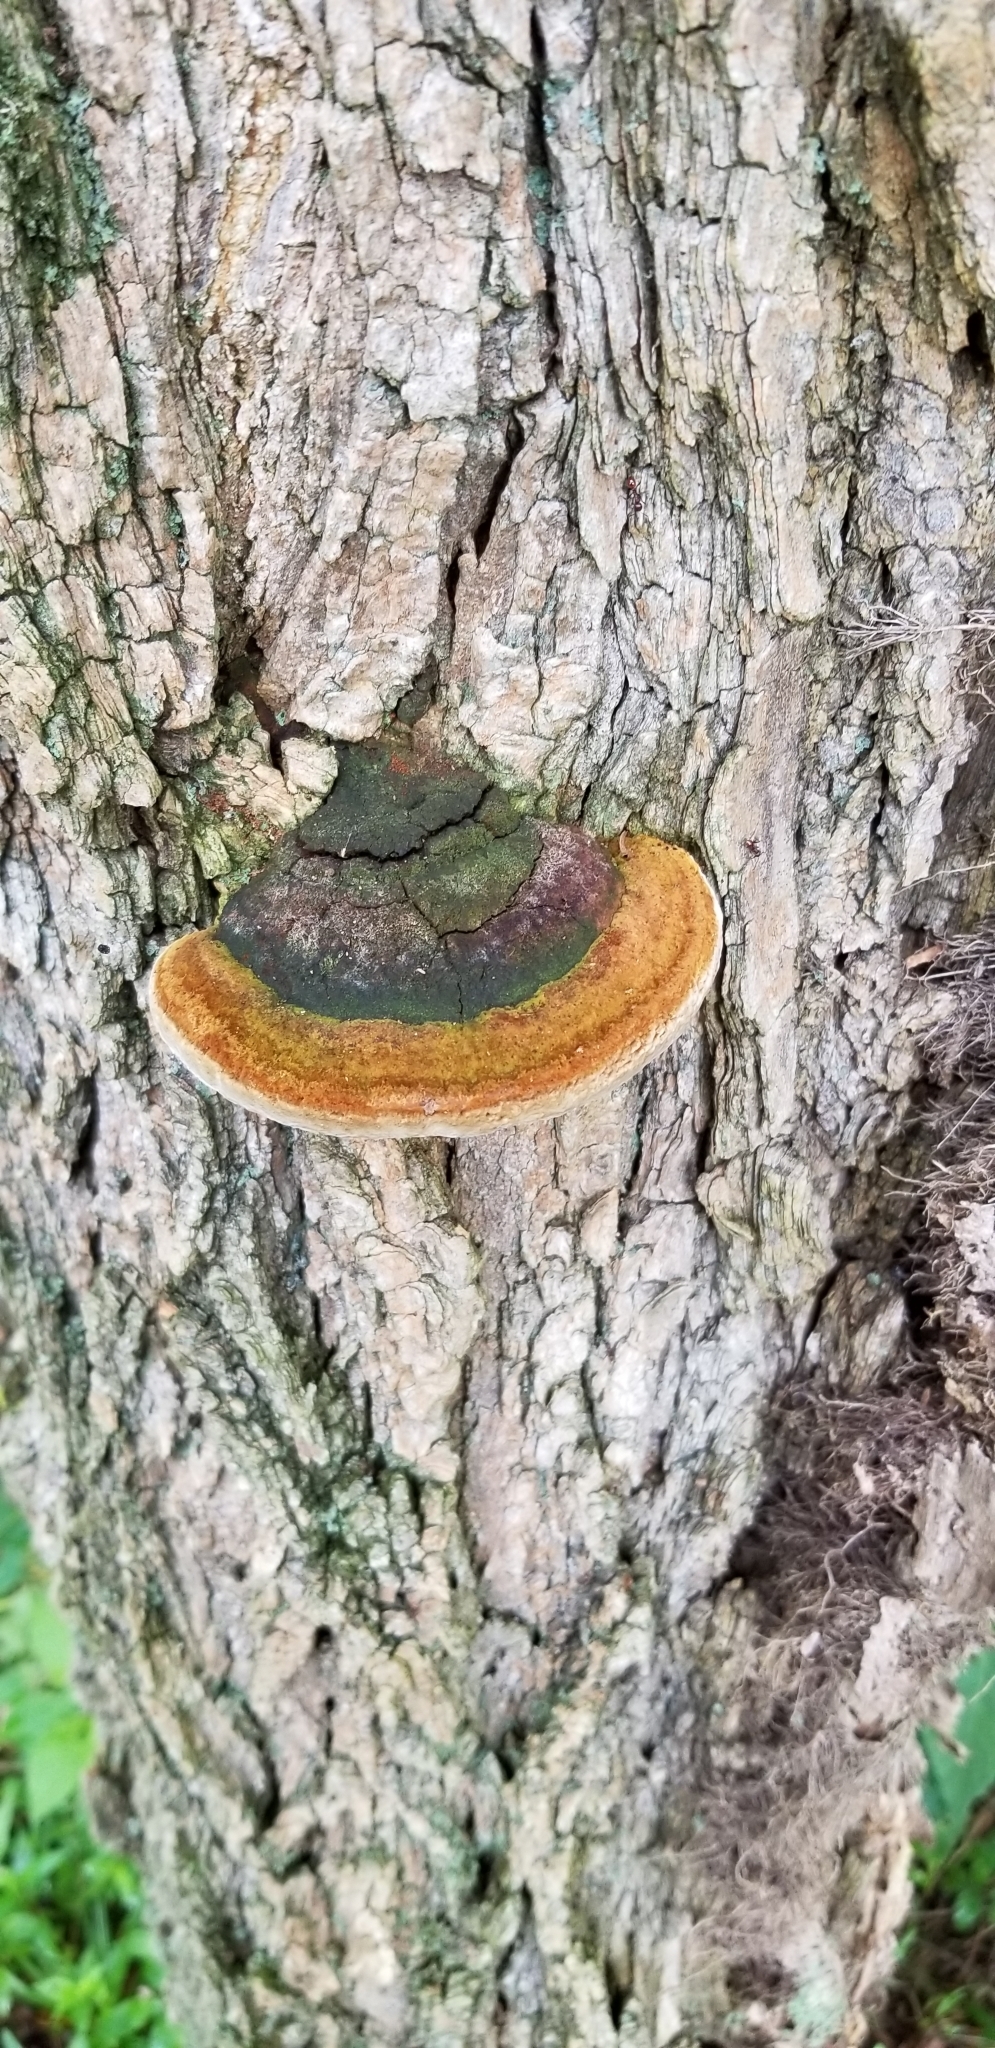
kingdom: Fungi
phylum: Basidiomycota
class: Agaricomycetes
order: Polyporales
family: Fomitopsidaceae
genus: Fomitopsis
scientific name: Fomitopsis mounceae
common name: Northern red belt
